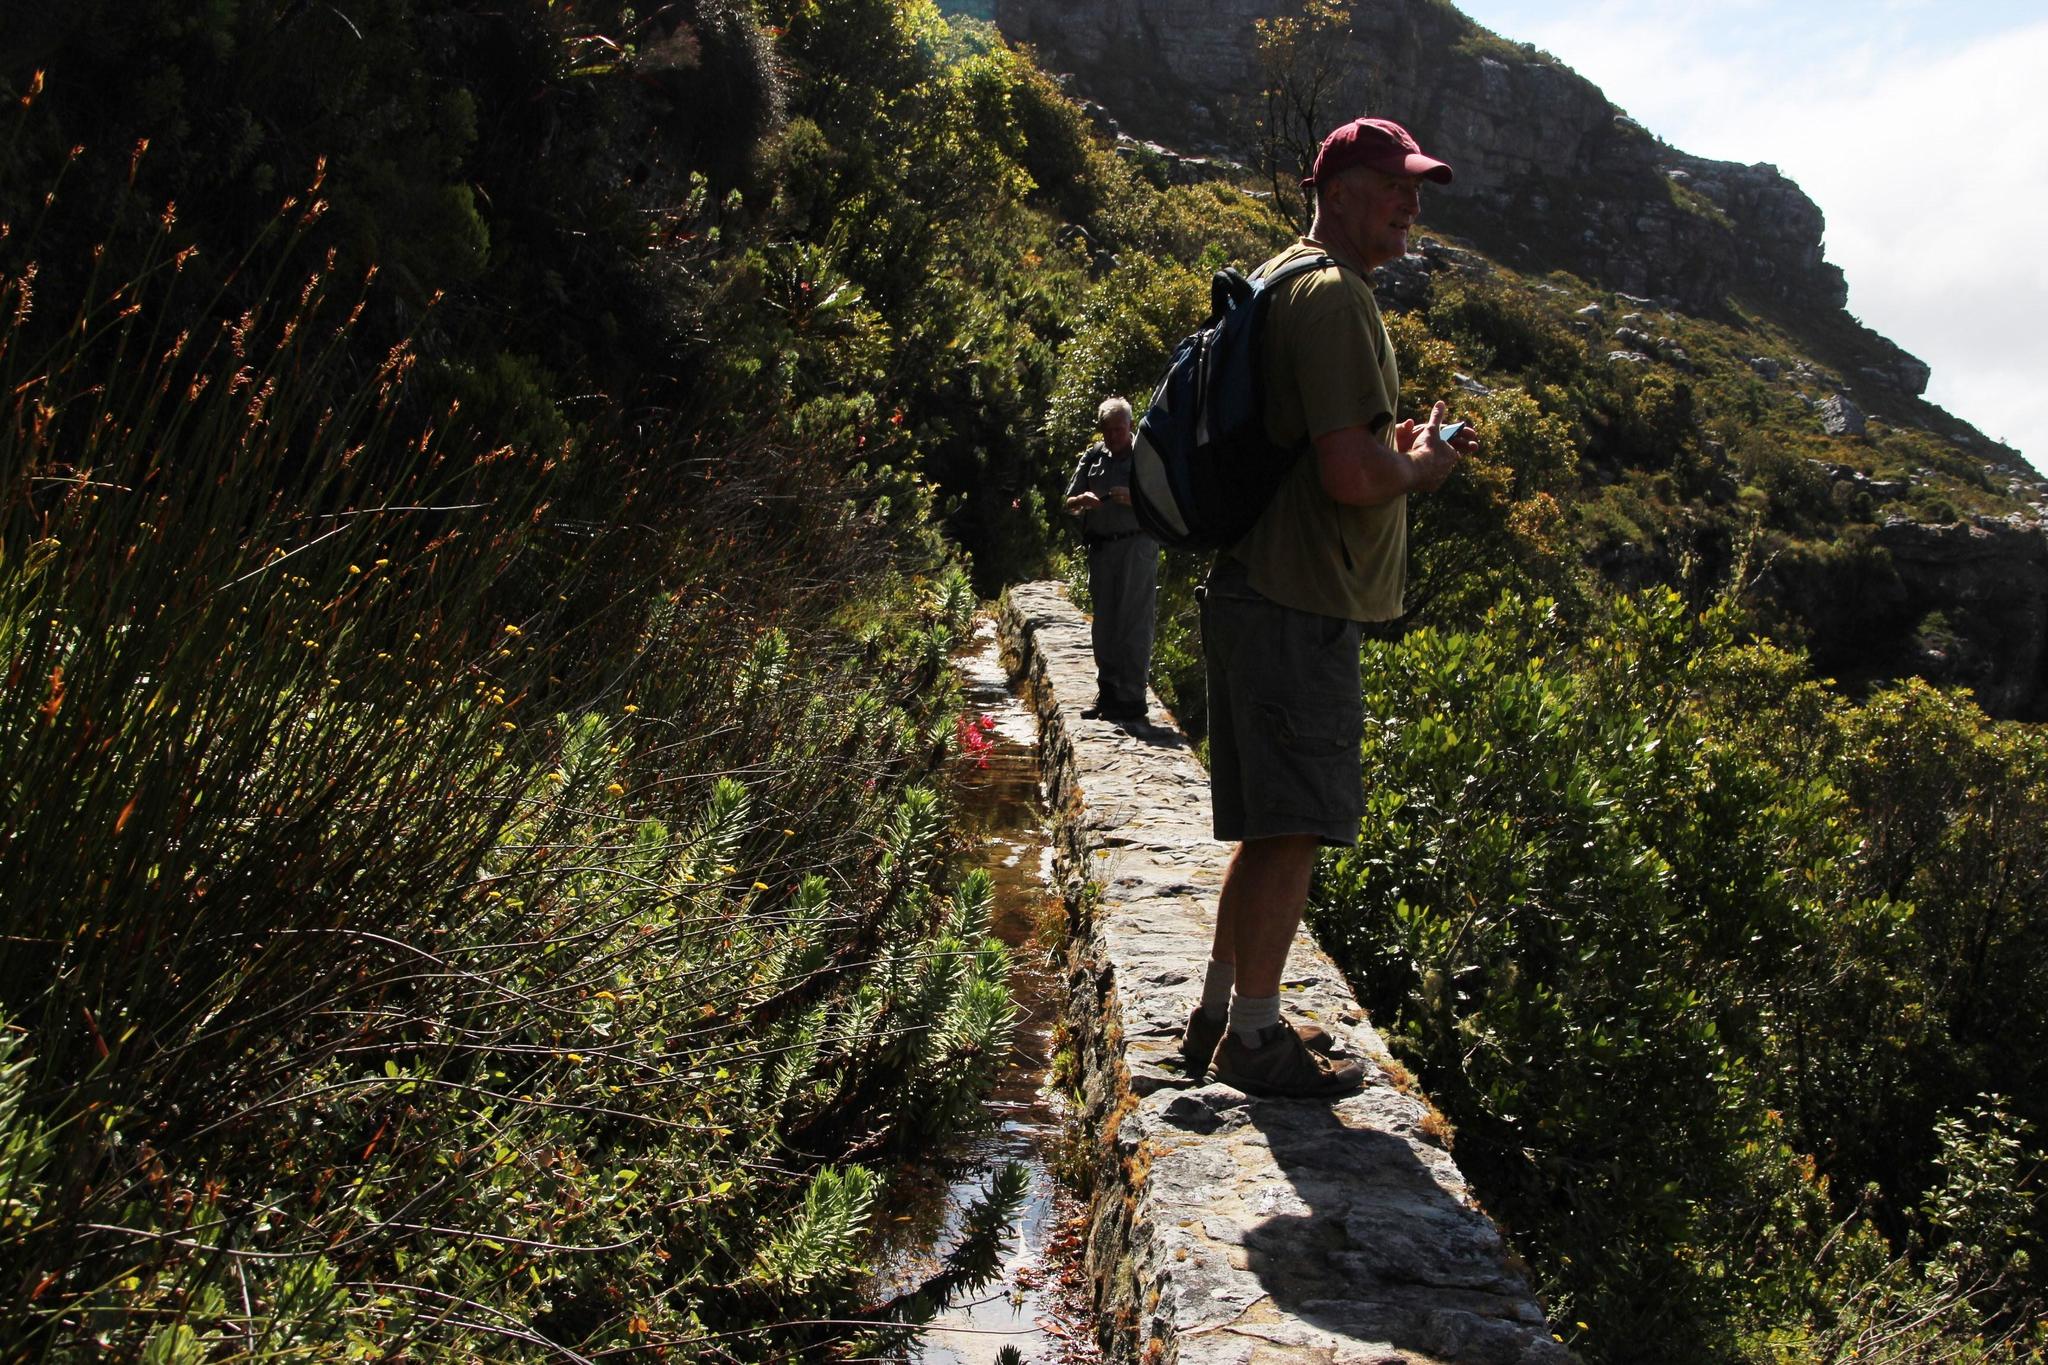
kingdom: Plantae
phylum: Tracheophyta
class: Liliopsida
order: Asparagales
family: Orchidaceae
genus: Disa
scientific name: Disa uniflora
